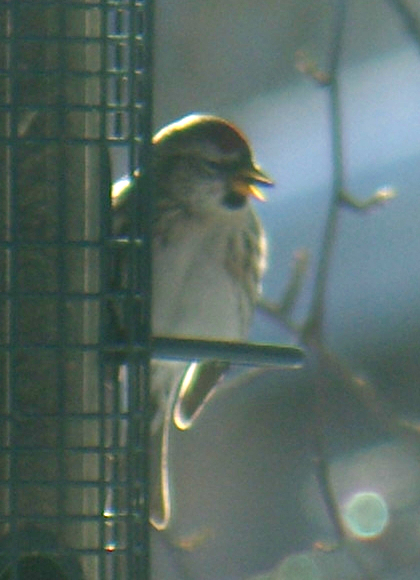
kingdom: Animalia
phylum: Chordata
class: Aves
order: Passeriformes
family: Fringillidae
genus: Acanthis
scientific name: Acanthis flammea
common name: Common redpoll
